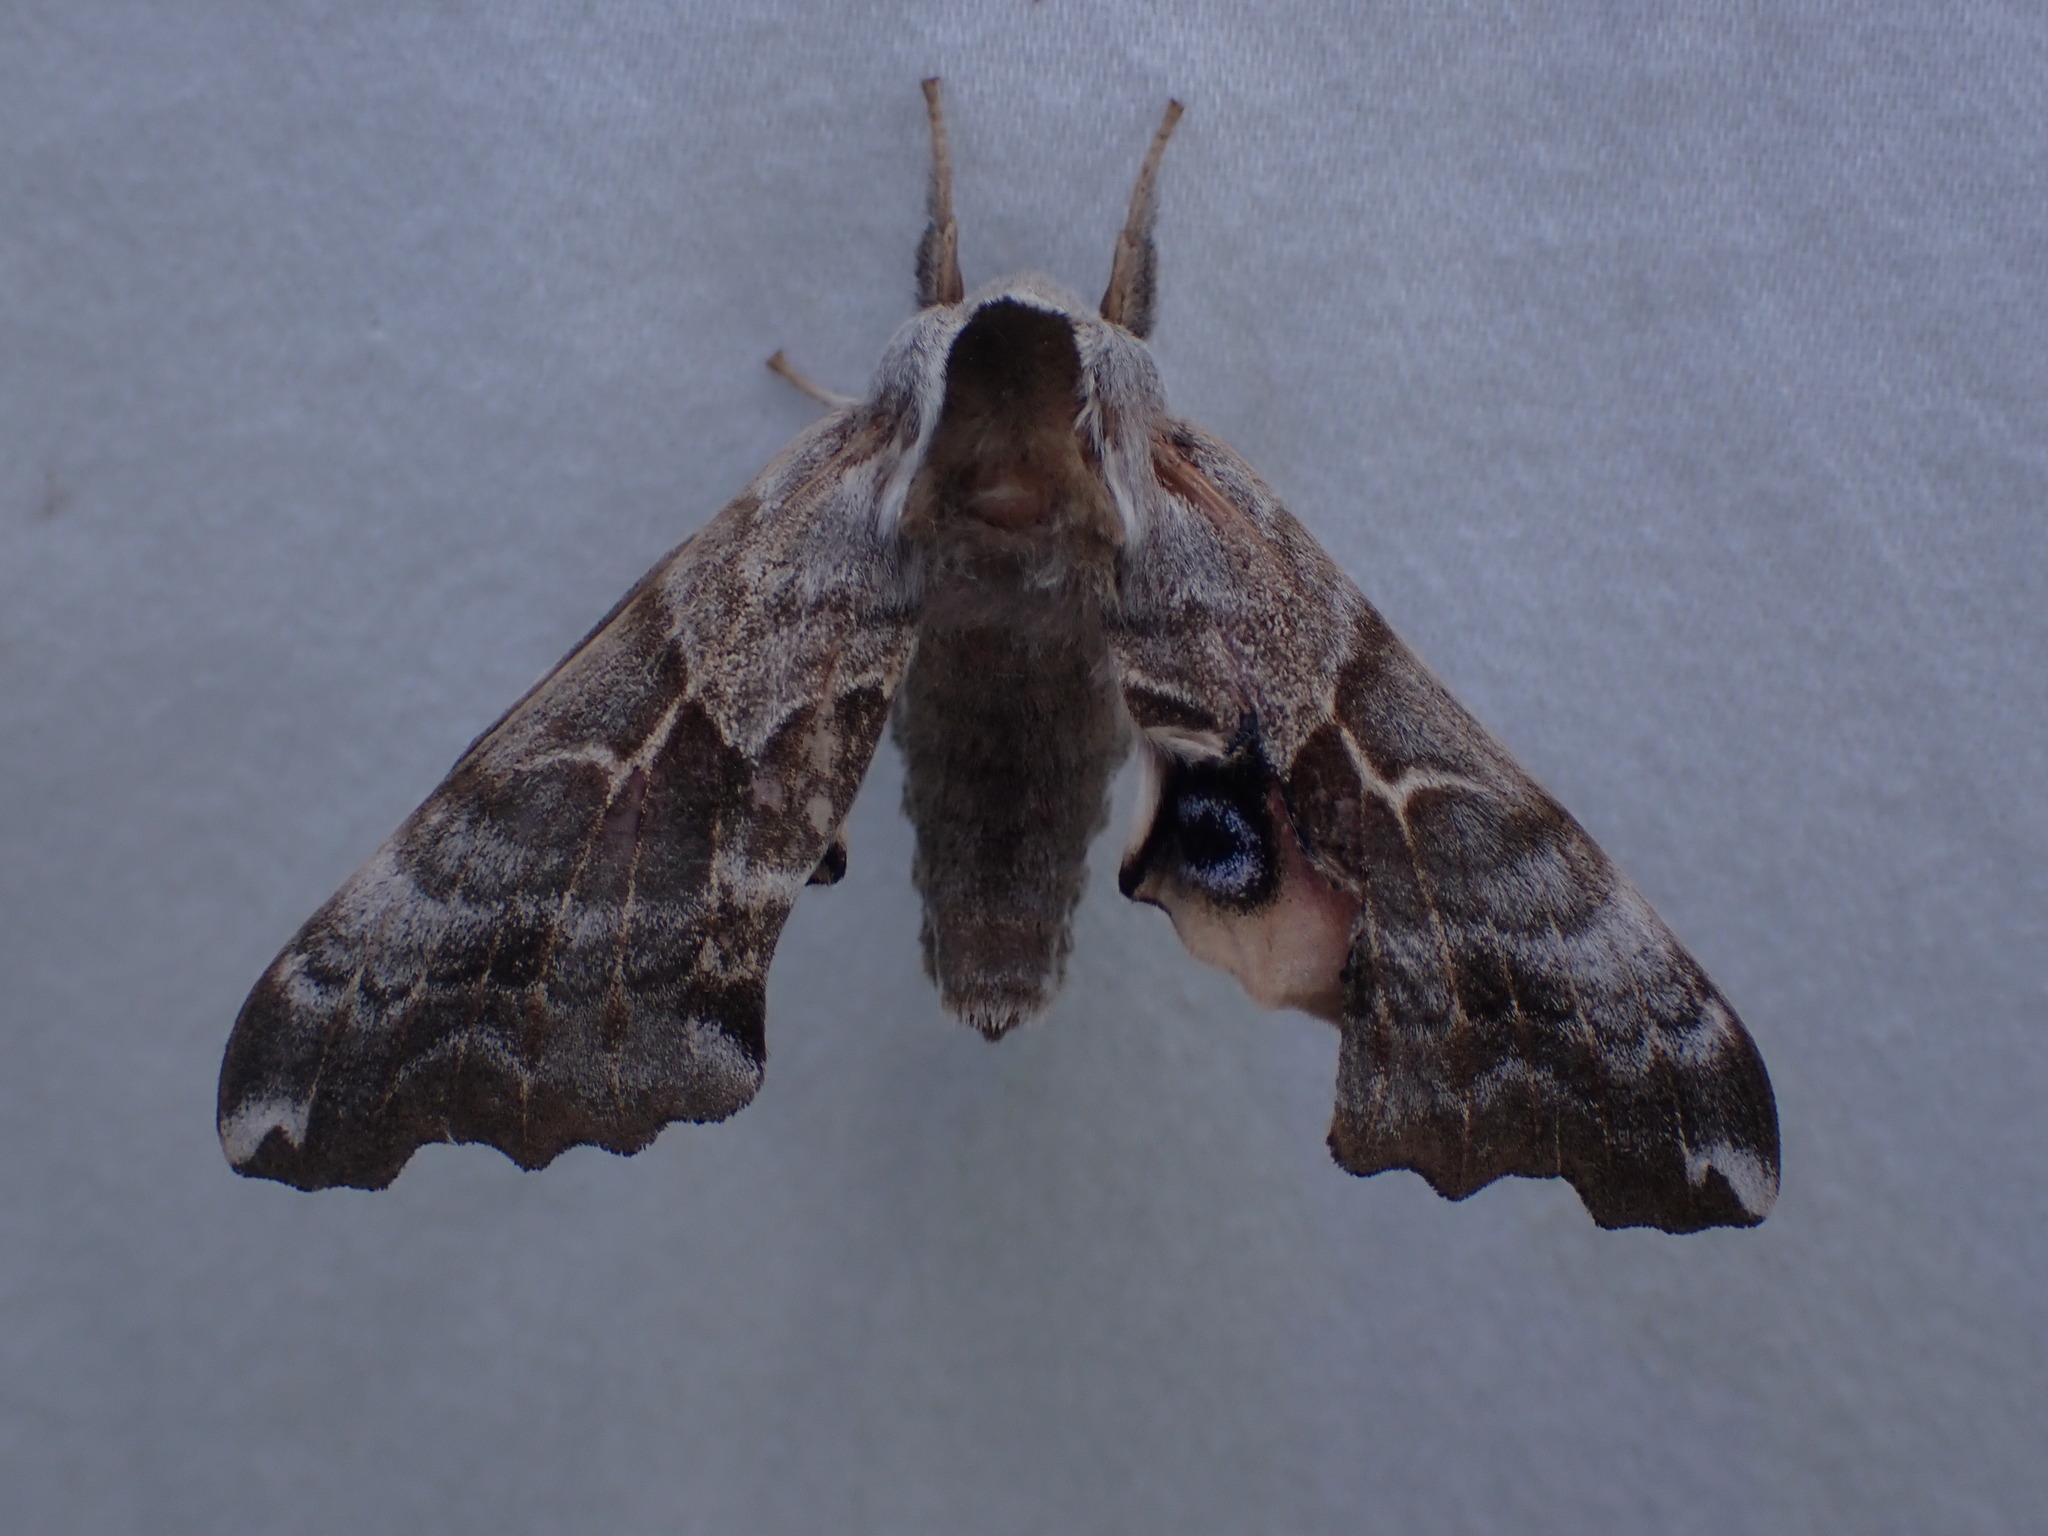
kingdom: Animalia
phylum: Arthropoda
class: Insecta
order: Lepidoptera
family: Sphingidae
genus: Smerinthus
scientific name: Smerinthus cerisyi
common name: Cerisy's sphinx moth
